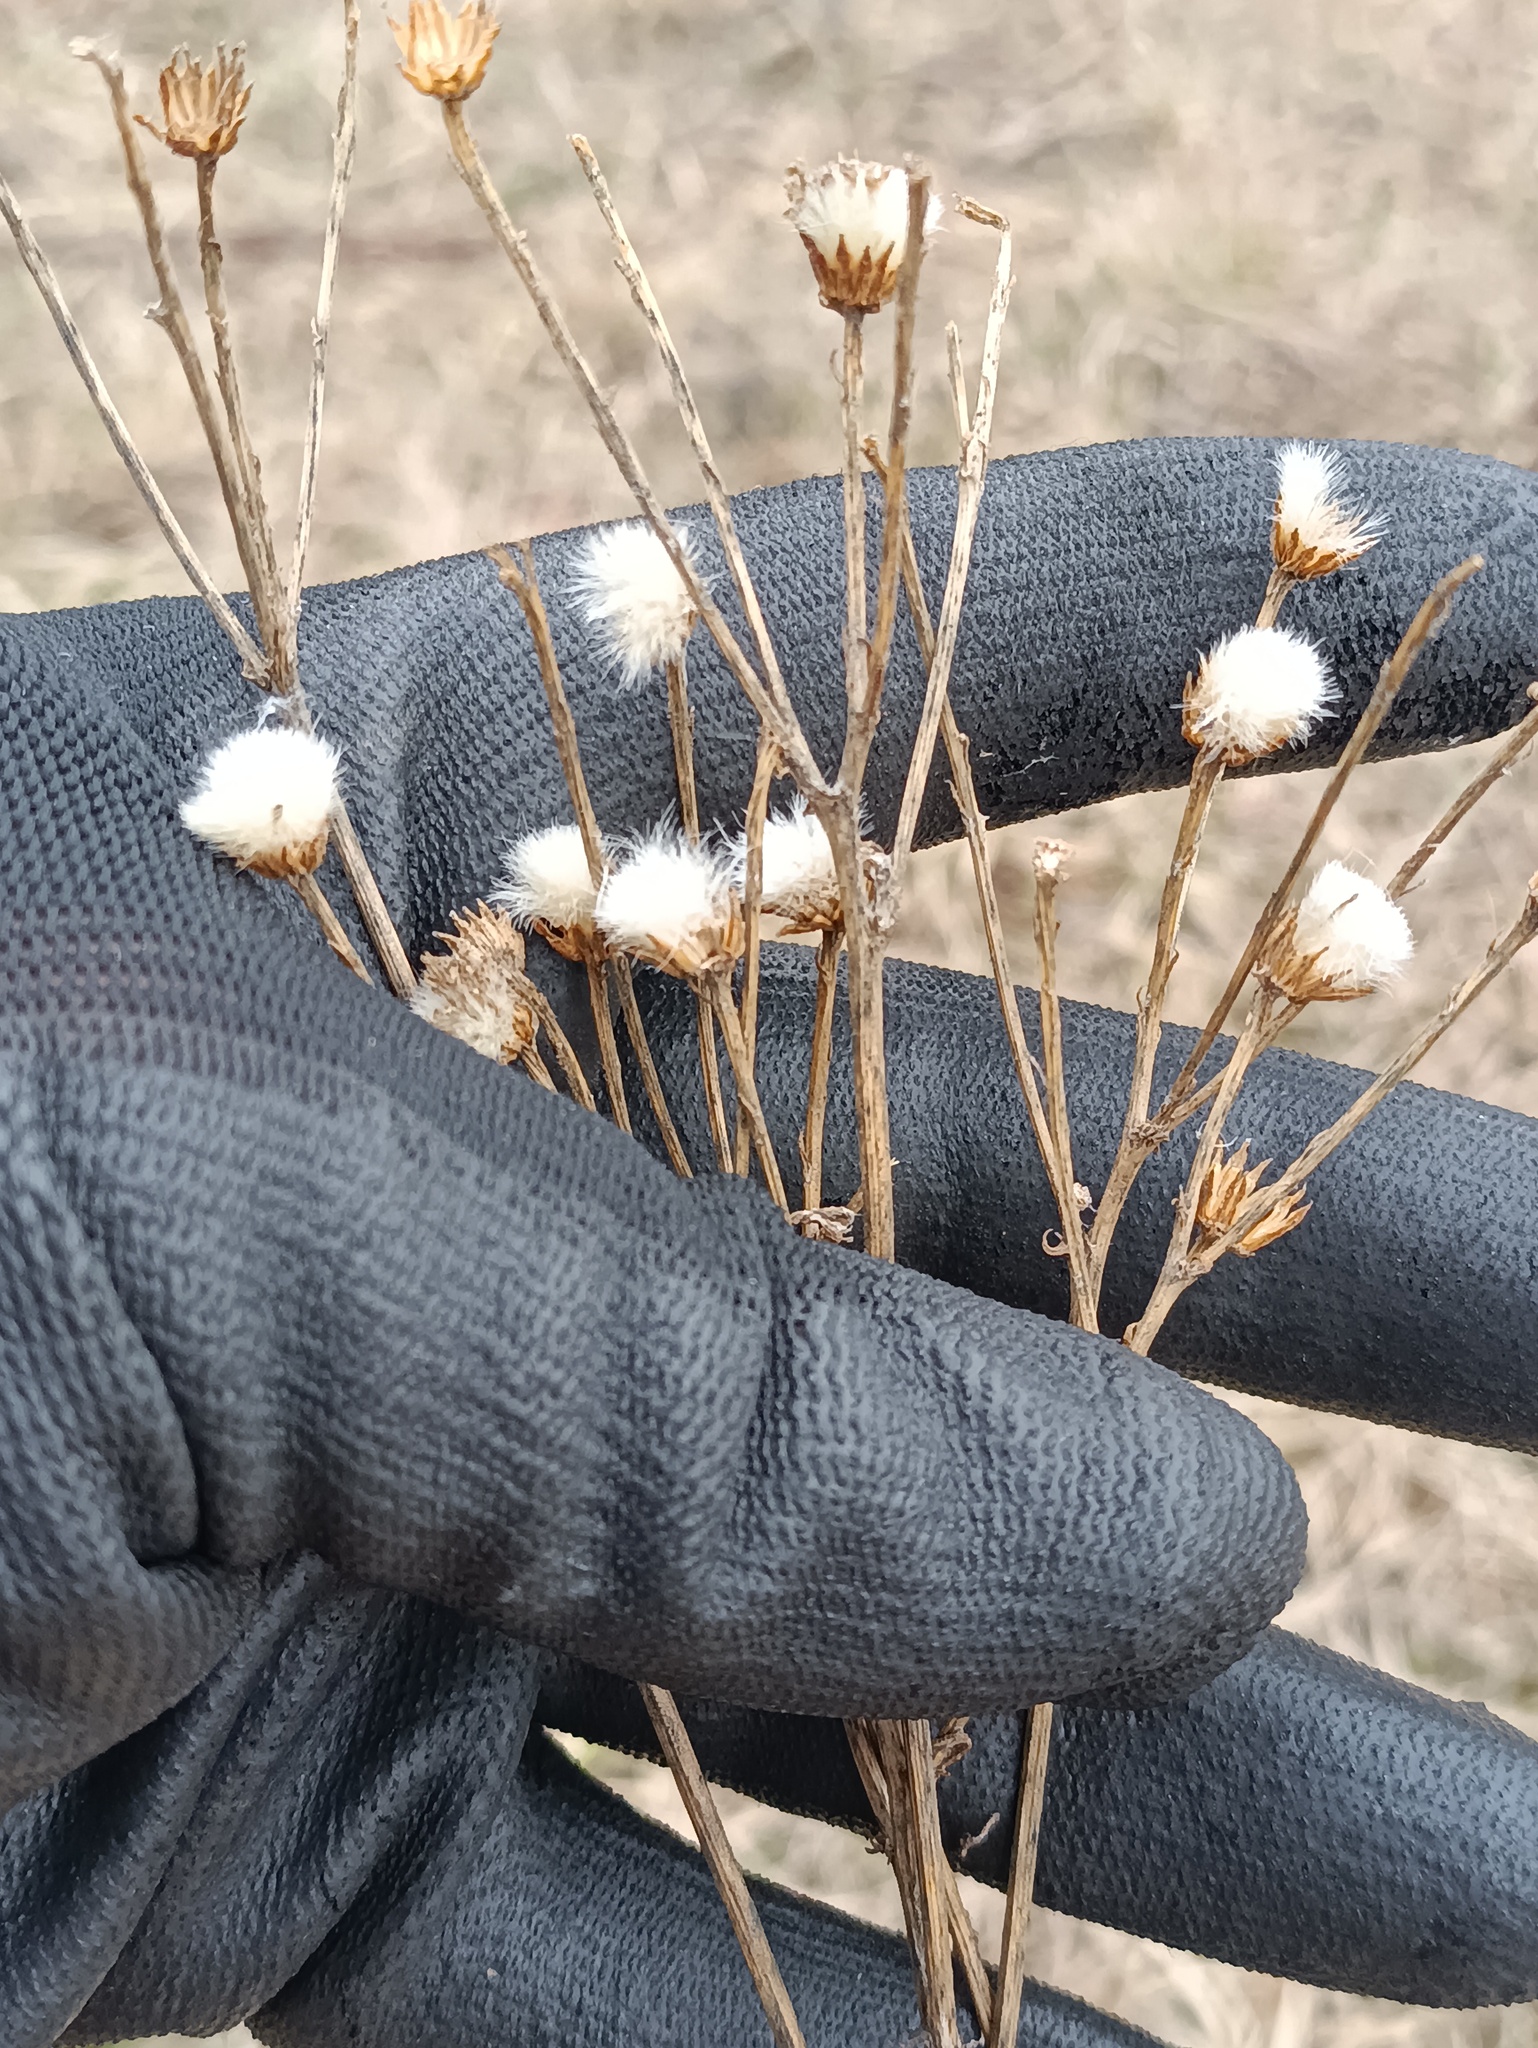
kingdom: Plantae
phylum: Tracheophyta
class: Magnoliopsida
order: Asterales
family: Asteraceae
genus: Erigeron
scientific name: Erigeron acris
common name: Blue fleabane
